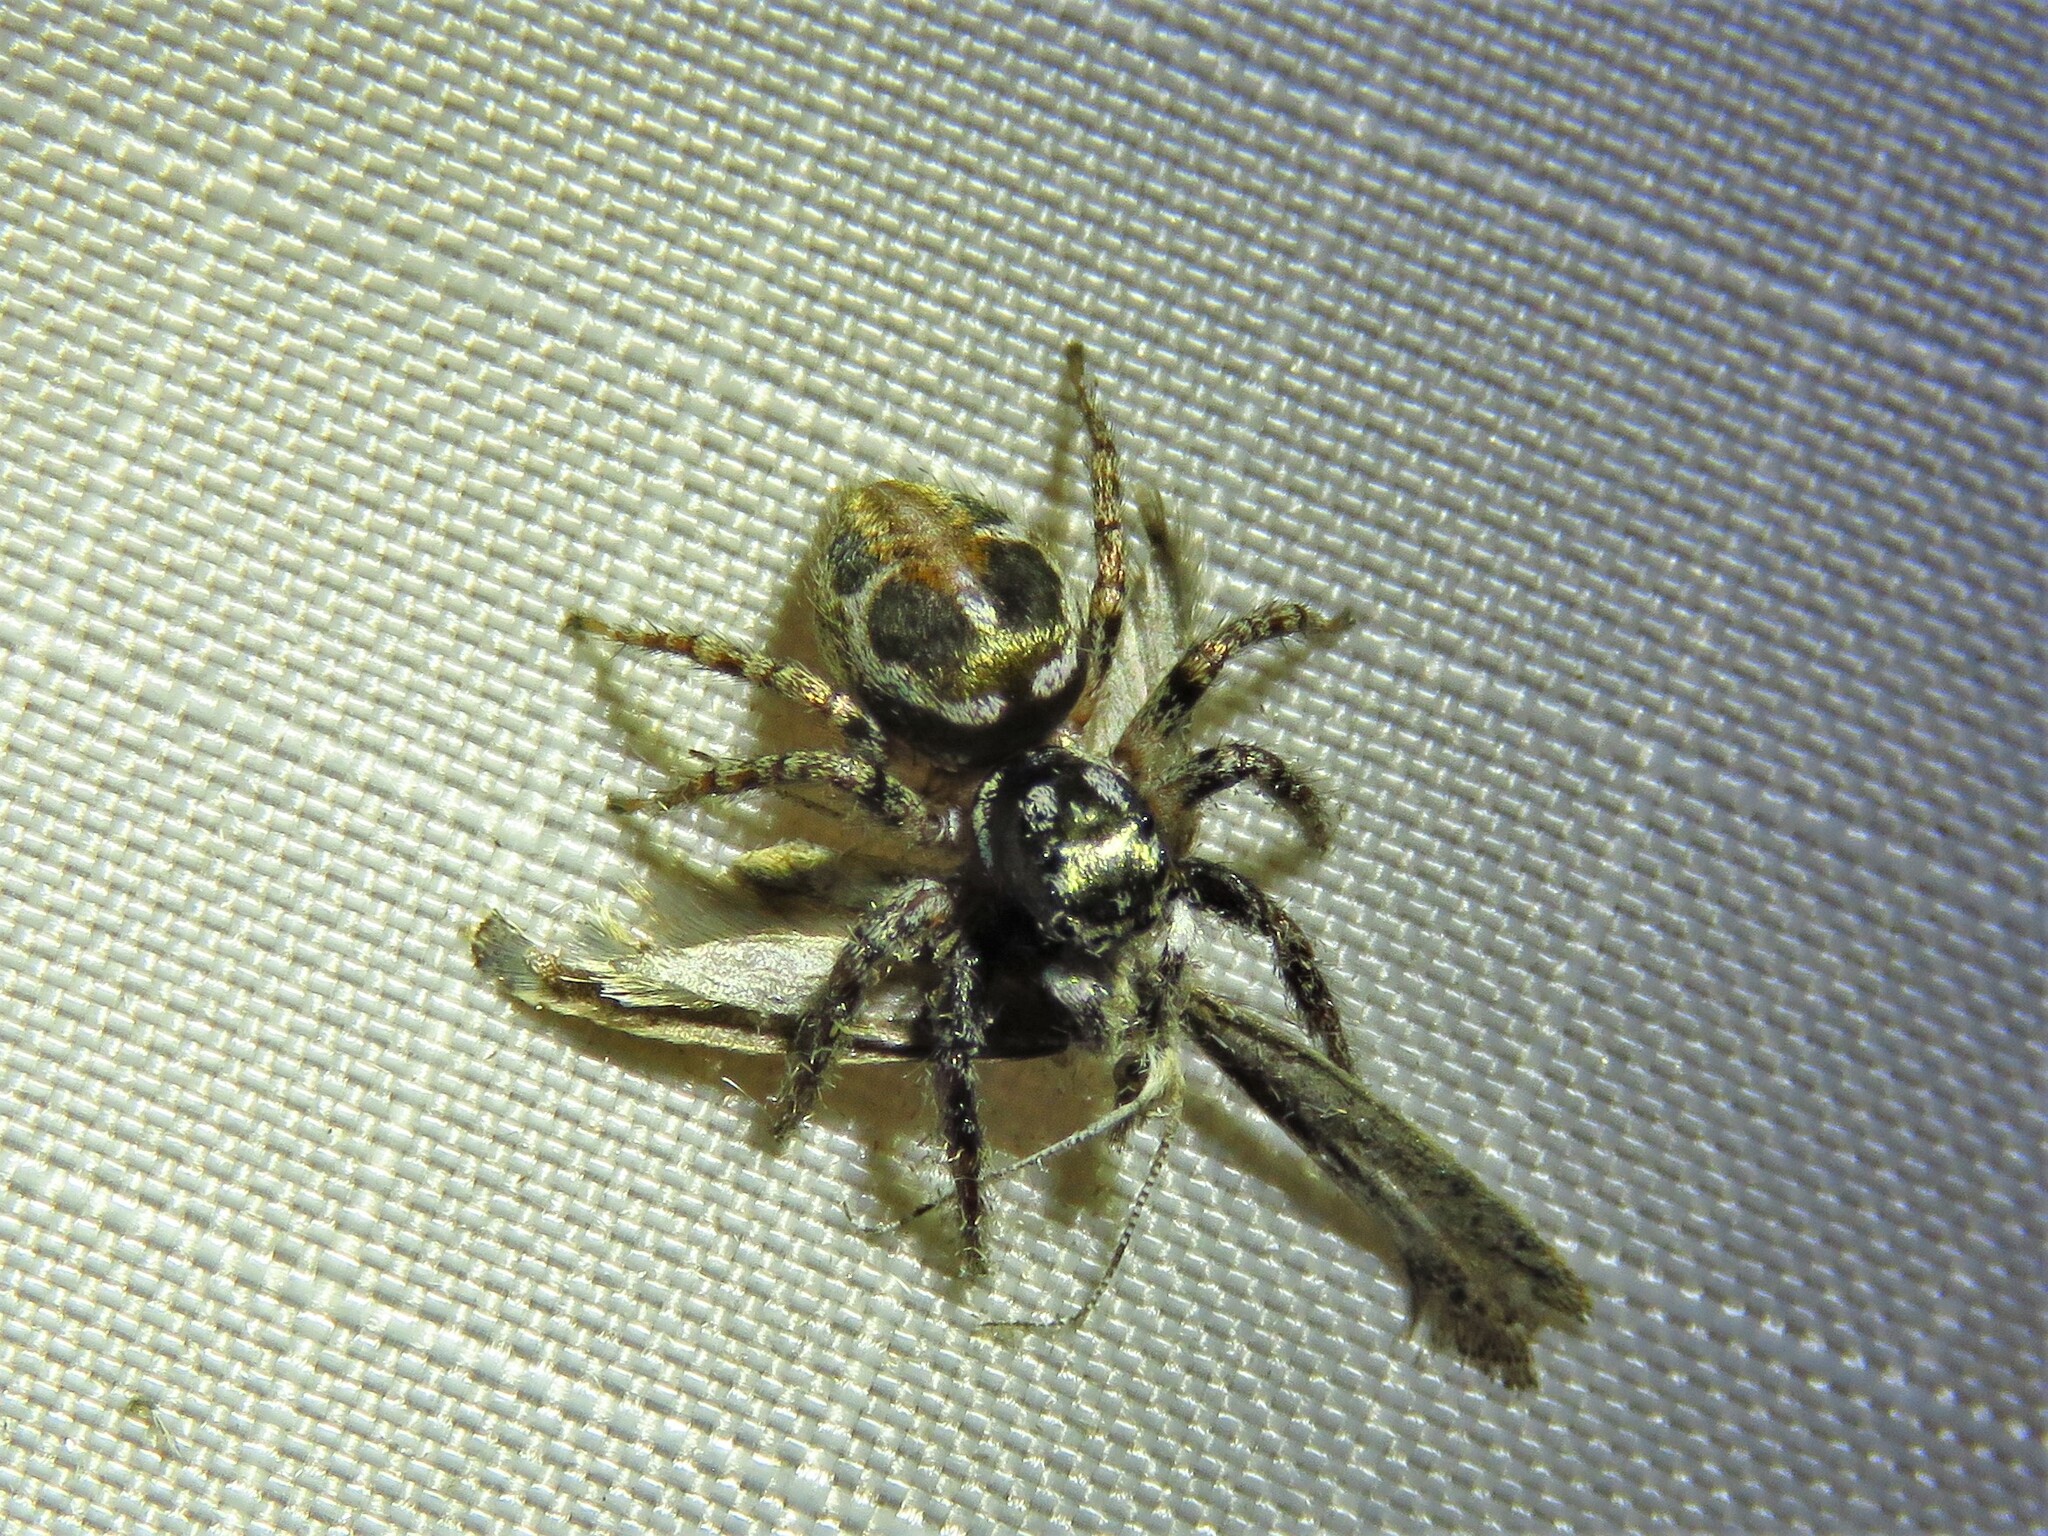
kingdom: Animalia
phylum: Arthropoda
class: Arachnida
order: Araneae
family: Salticidae
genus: Anasaitis
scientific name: Anasaitis canosa
